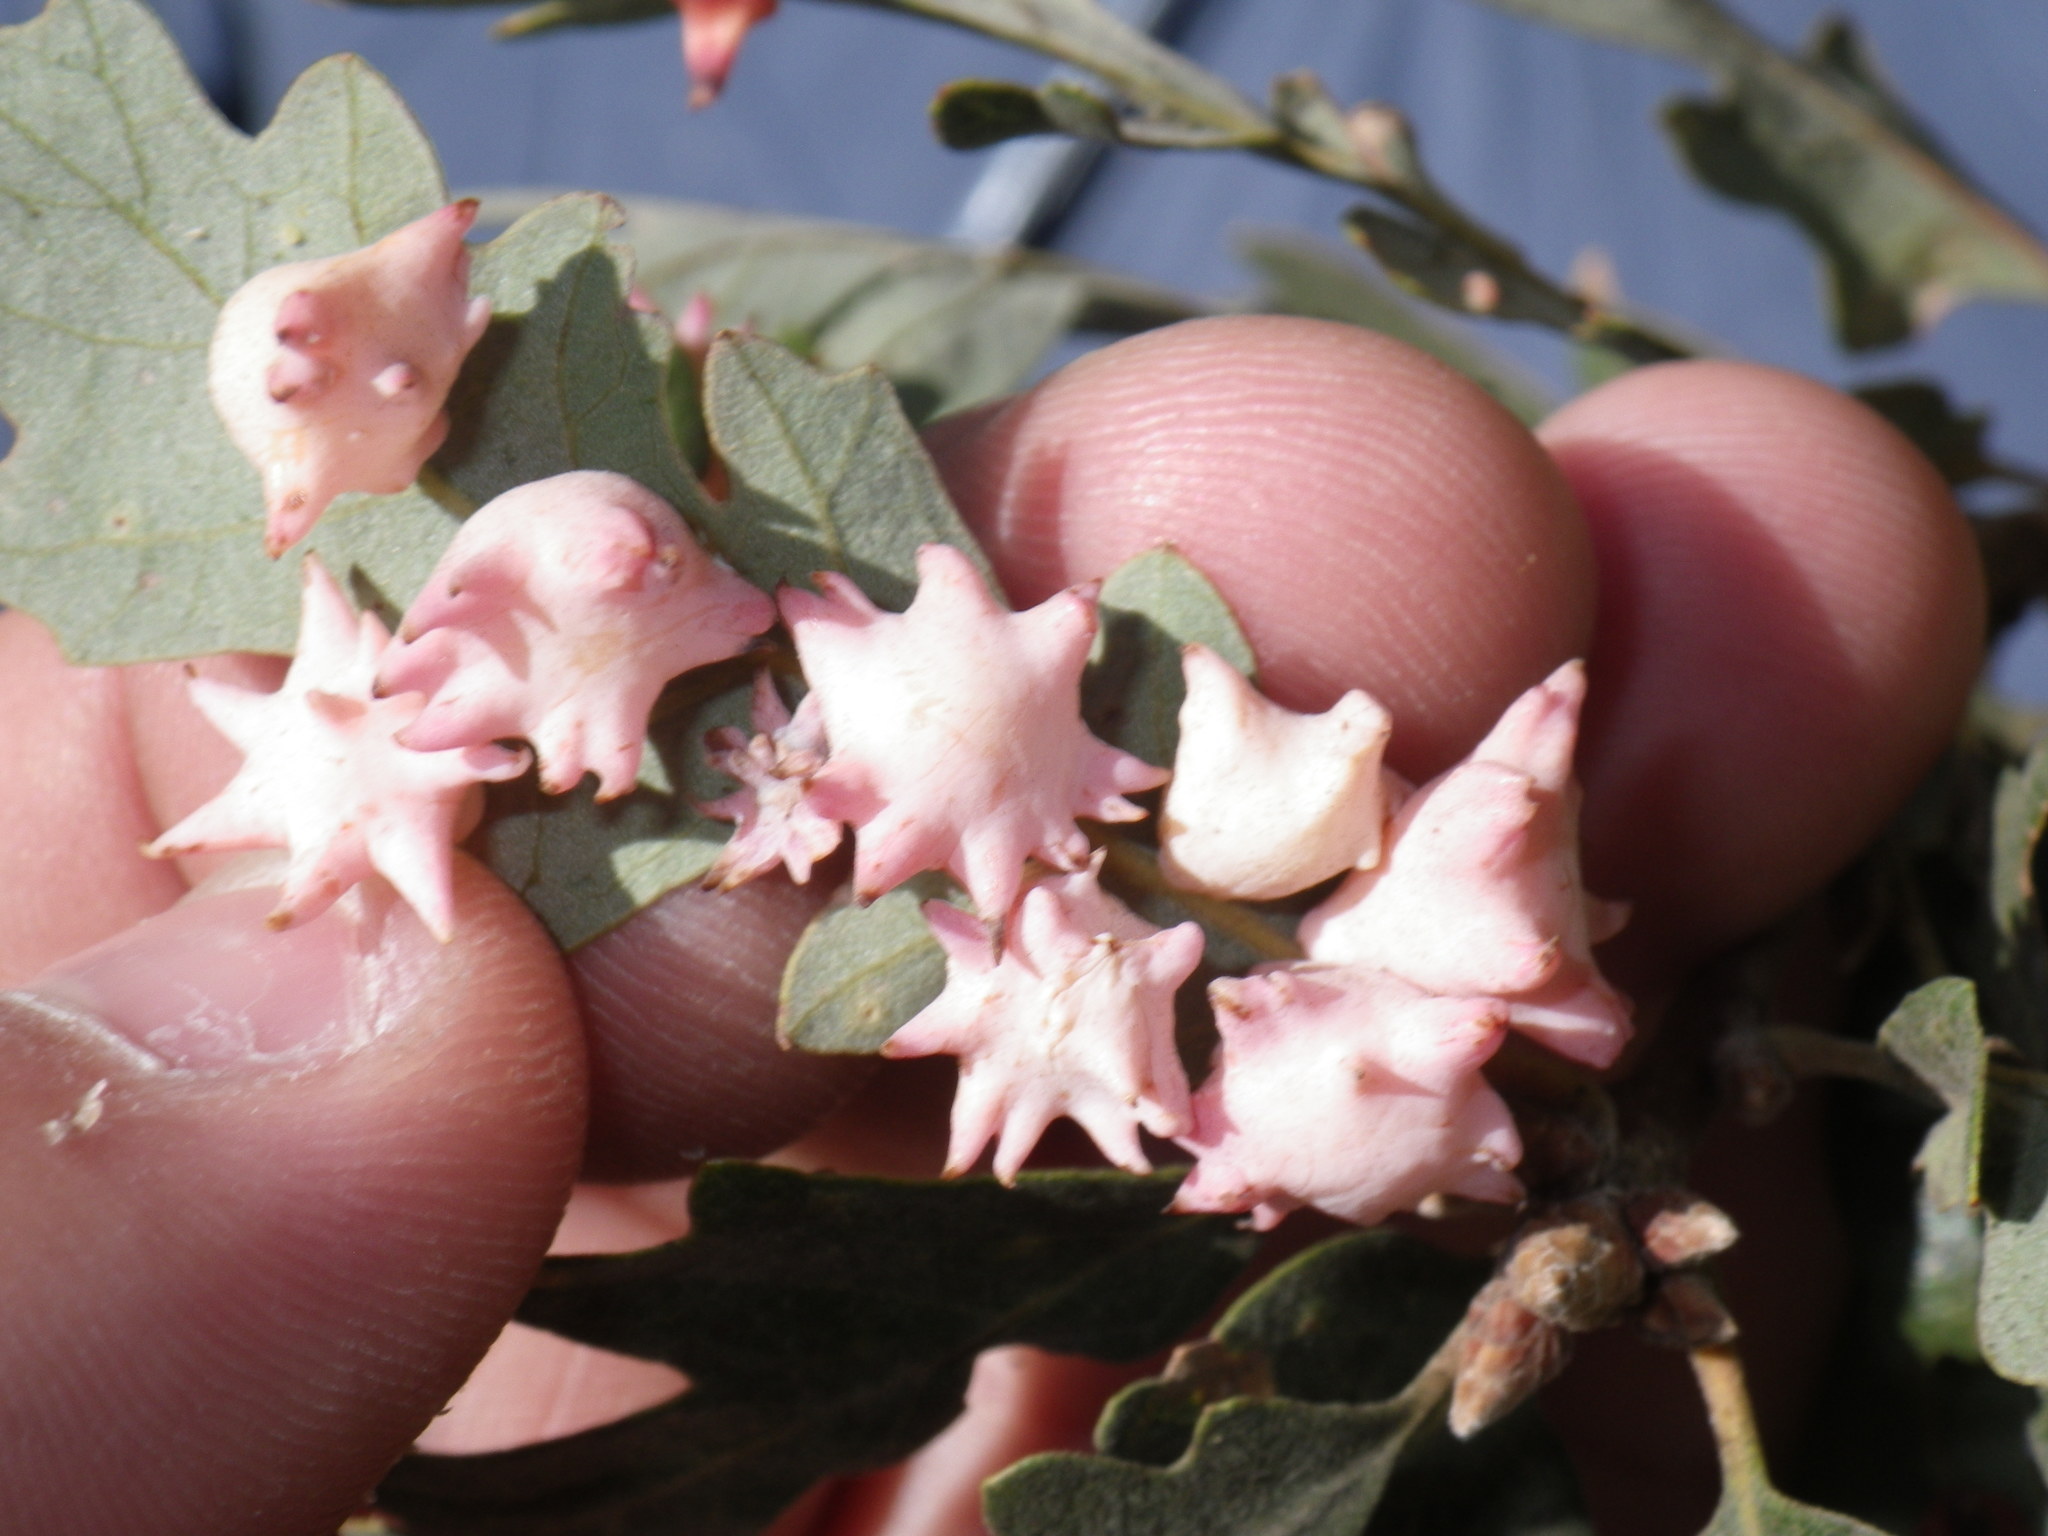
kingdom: Animalia
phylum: Arthropoda
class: Insecta
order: Hymenoptera
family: Cynipidae
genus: Cynips
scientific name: Cynips douglasi
